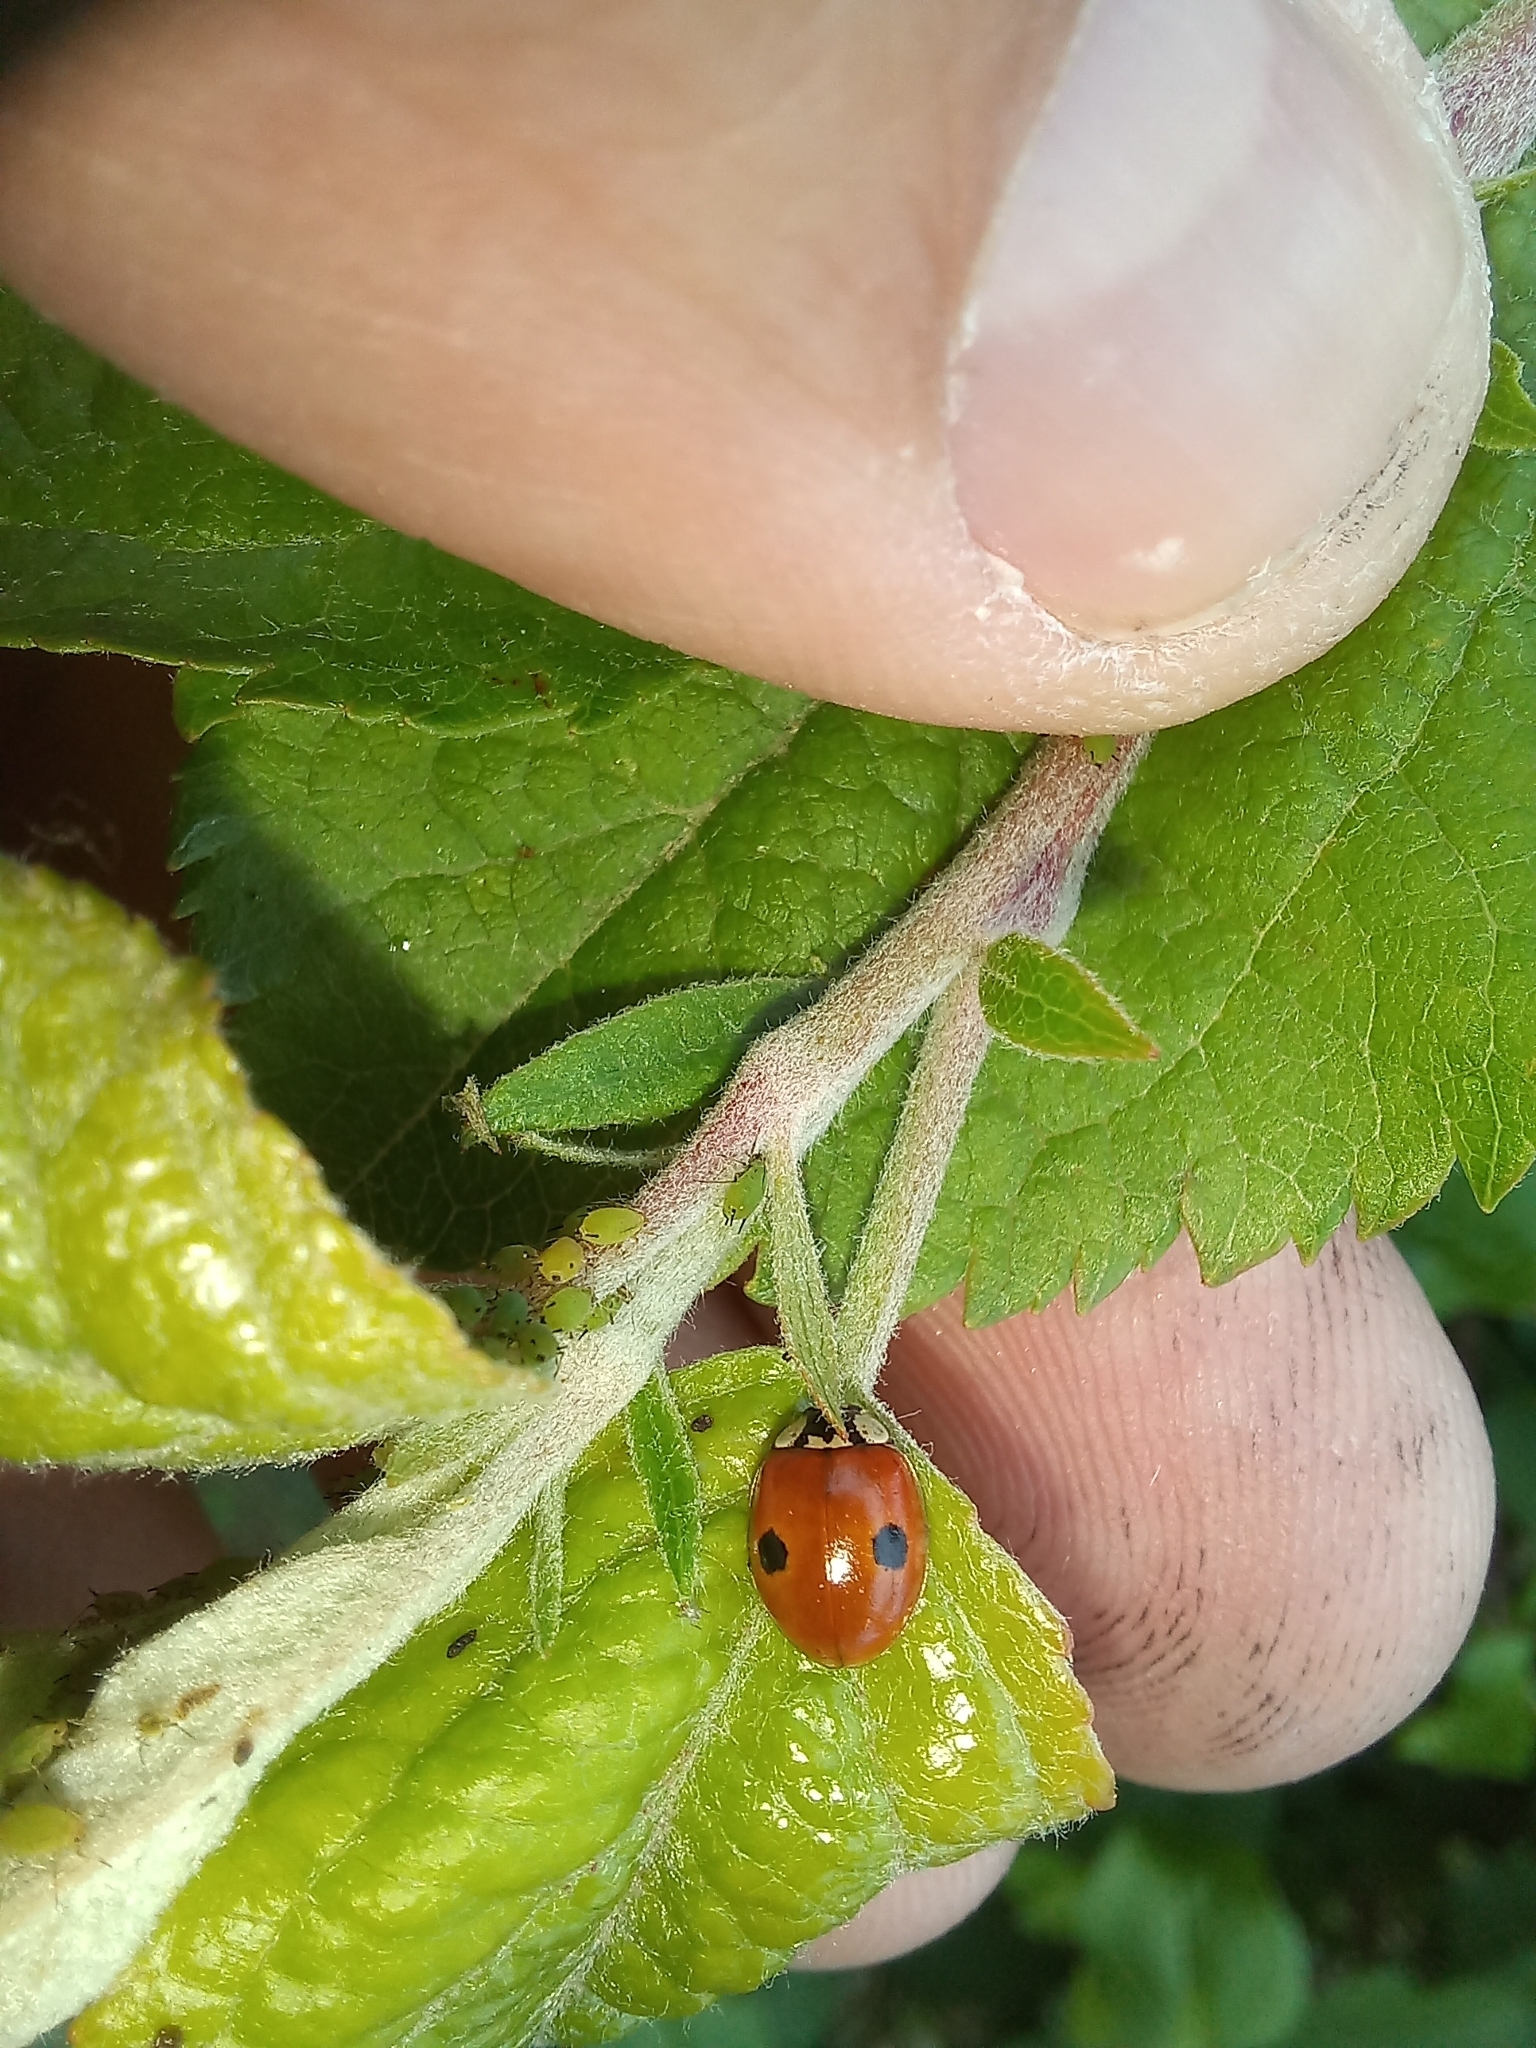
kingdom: Animalia
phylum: Arthropoda
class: Insecta
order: Coleoptera
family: Coccinellidae
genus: Adalia
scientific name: Adalia bipunctata
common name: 2-spot ladybird
